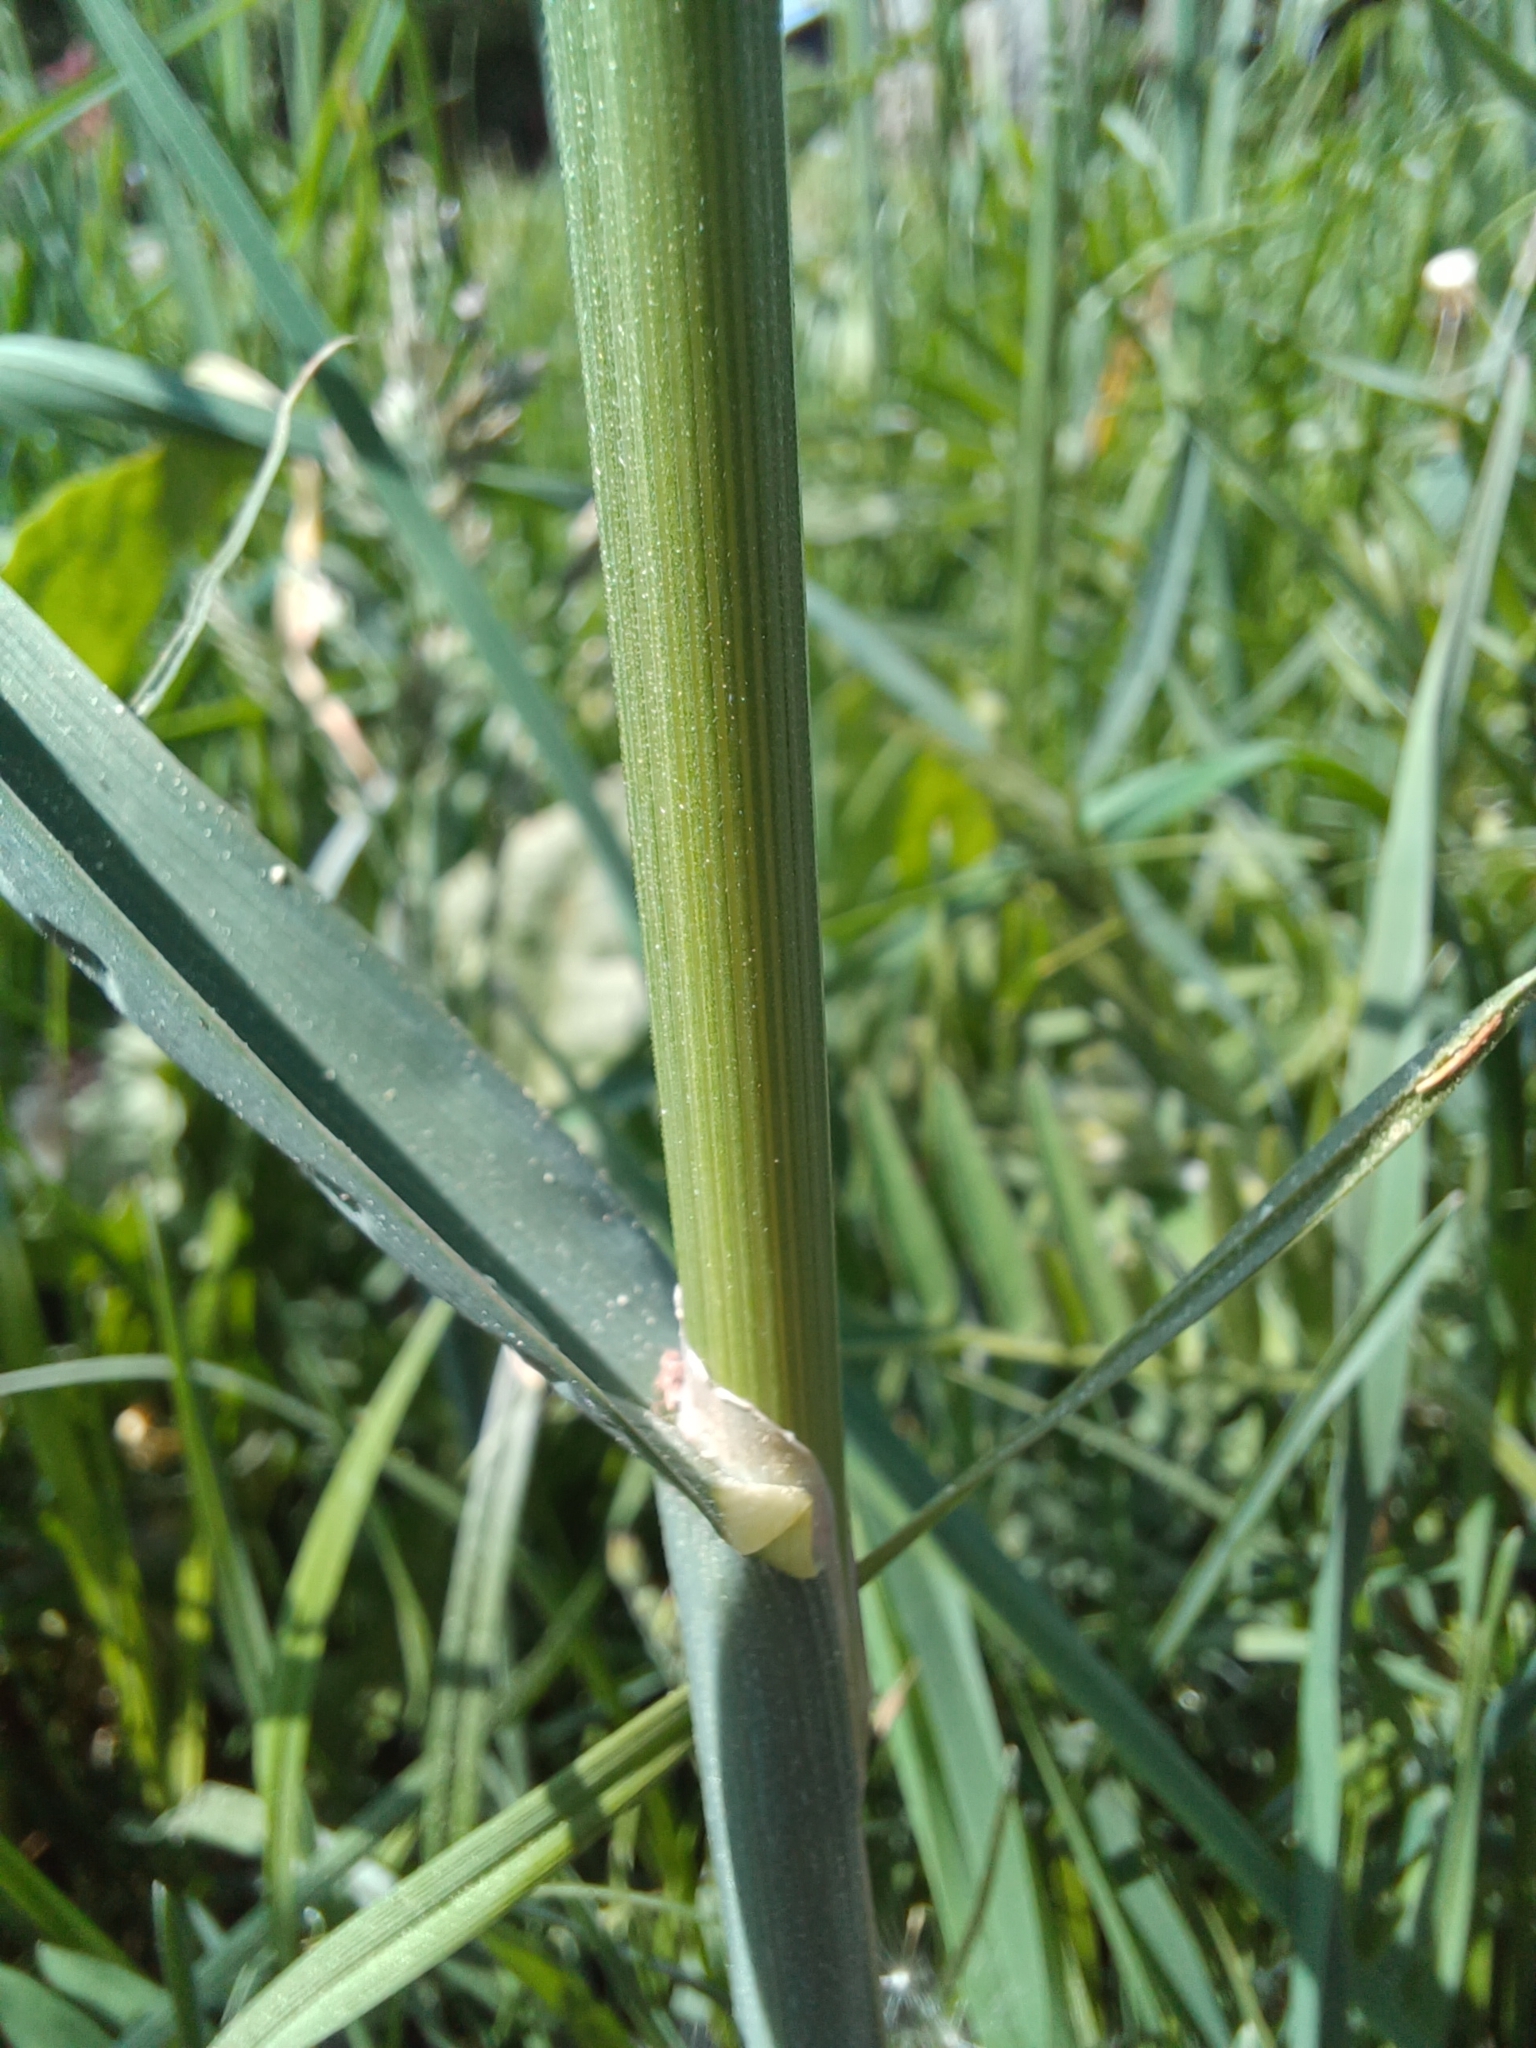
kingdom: Plantae
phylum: Tracheophyta
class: Liliopsida
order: Poales
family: Poaceae
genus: Dactylis
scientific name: Dactylis glomerata
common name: Orchardgrass
